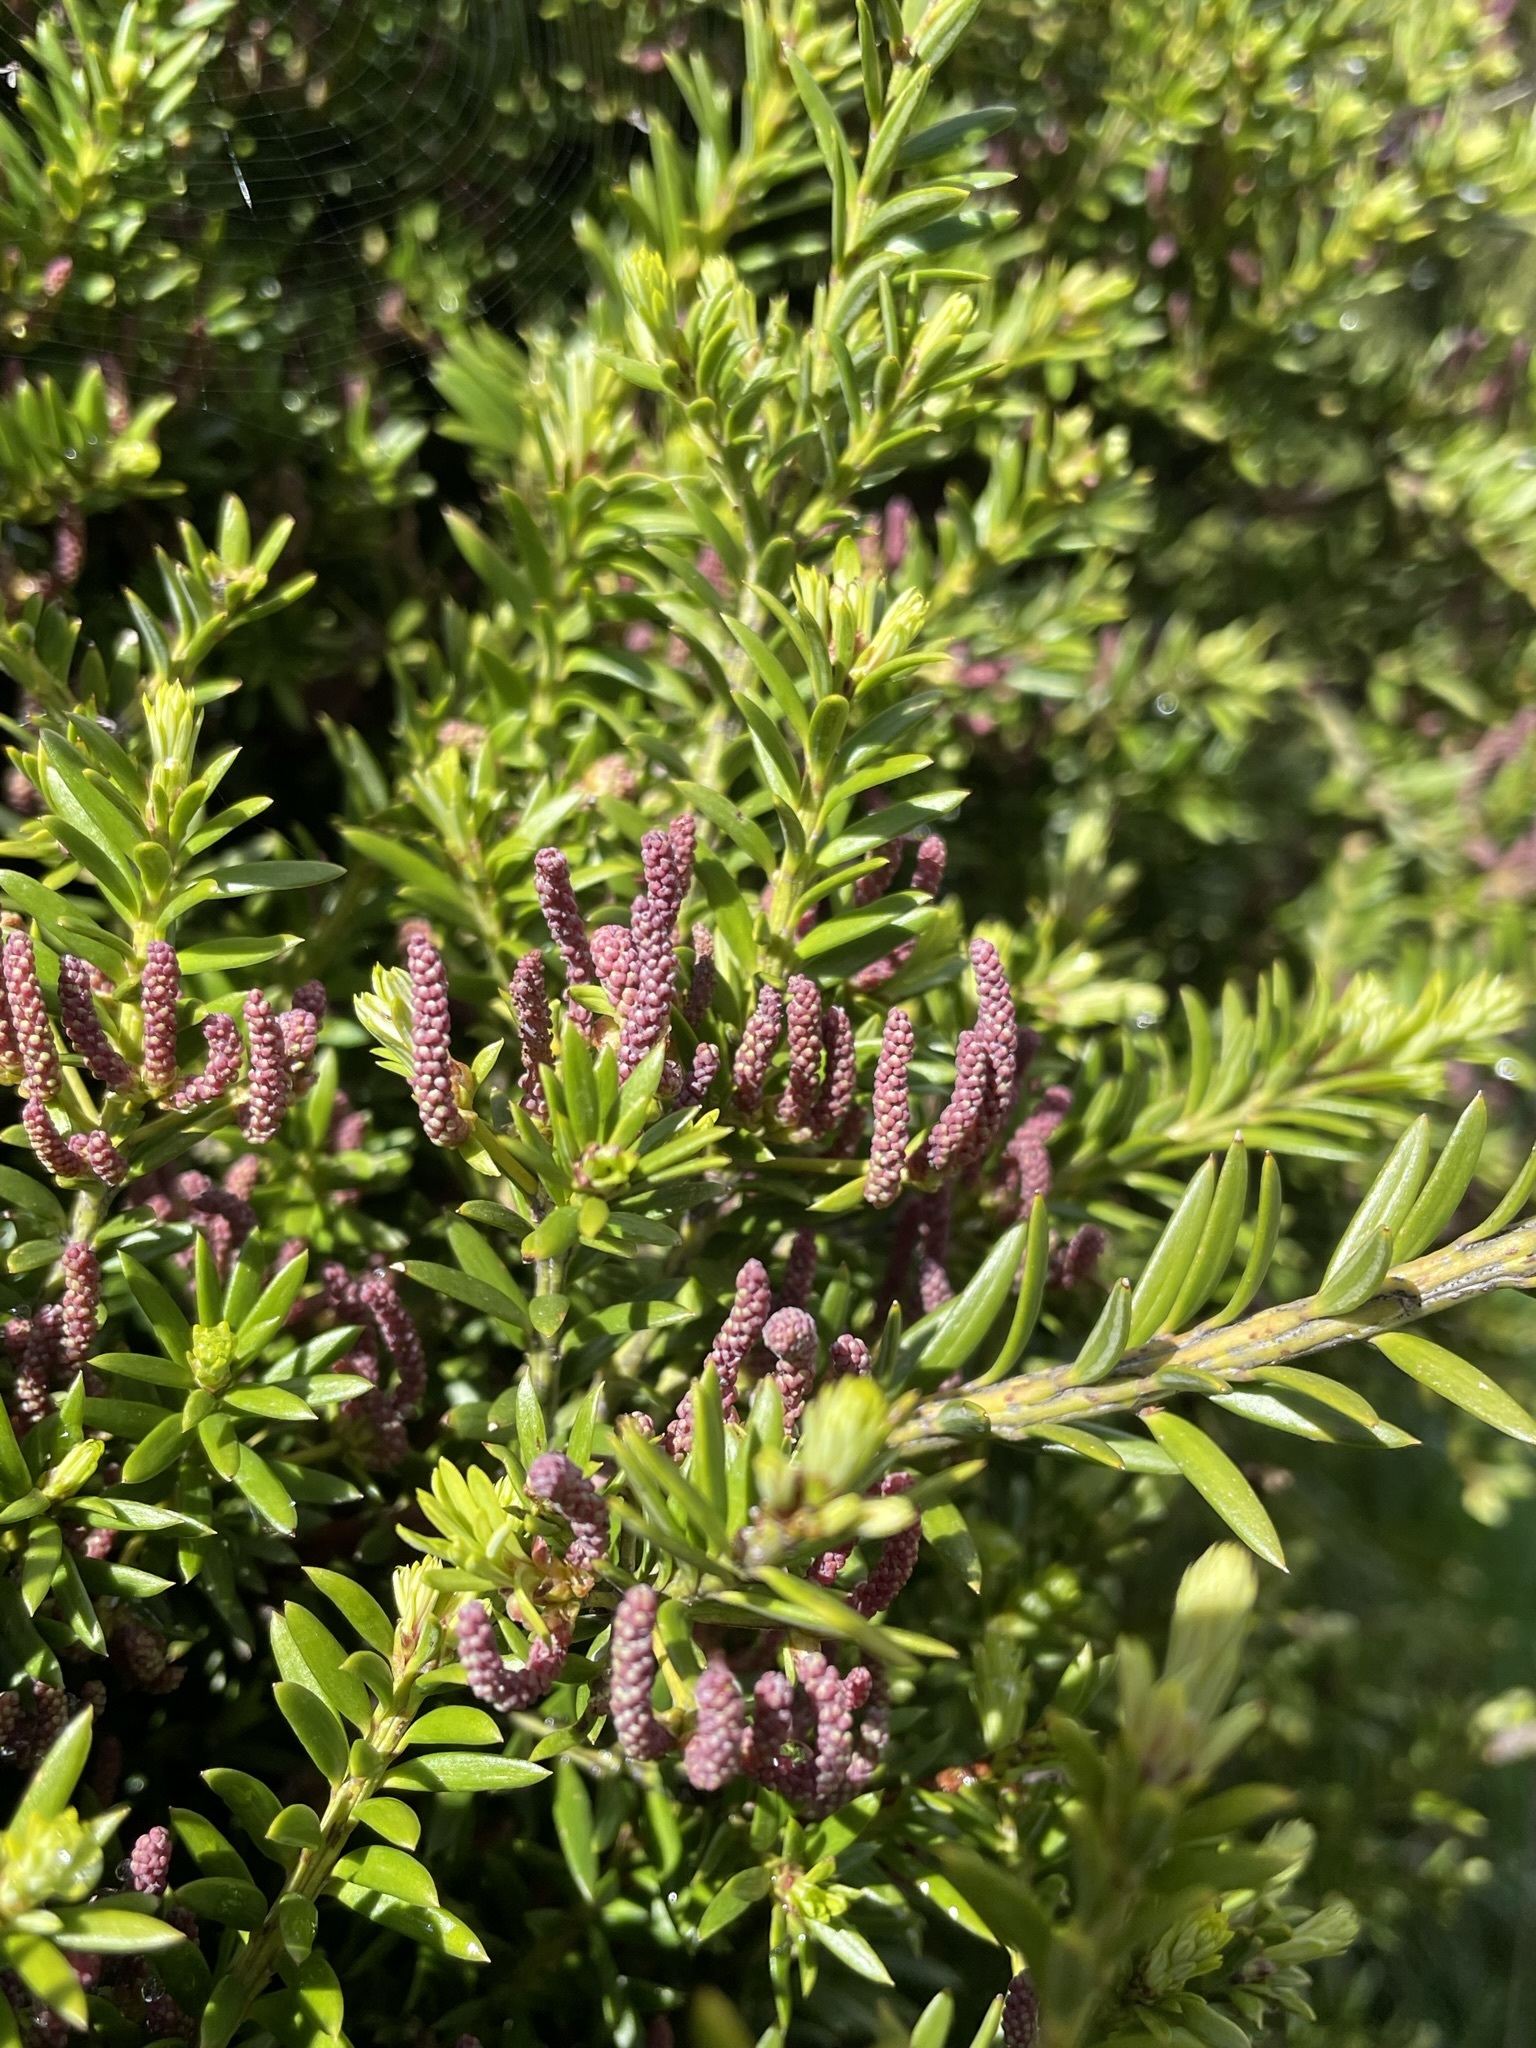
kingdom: Plantae
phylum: Tracheophyta
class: Pinopsida
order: Pinales
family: Podocarpaceae
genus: Podocarpus
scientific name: Podocarpus nivalis
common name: Alpine totara
